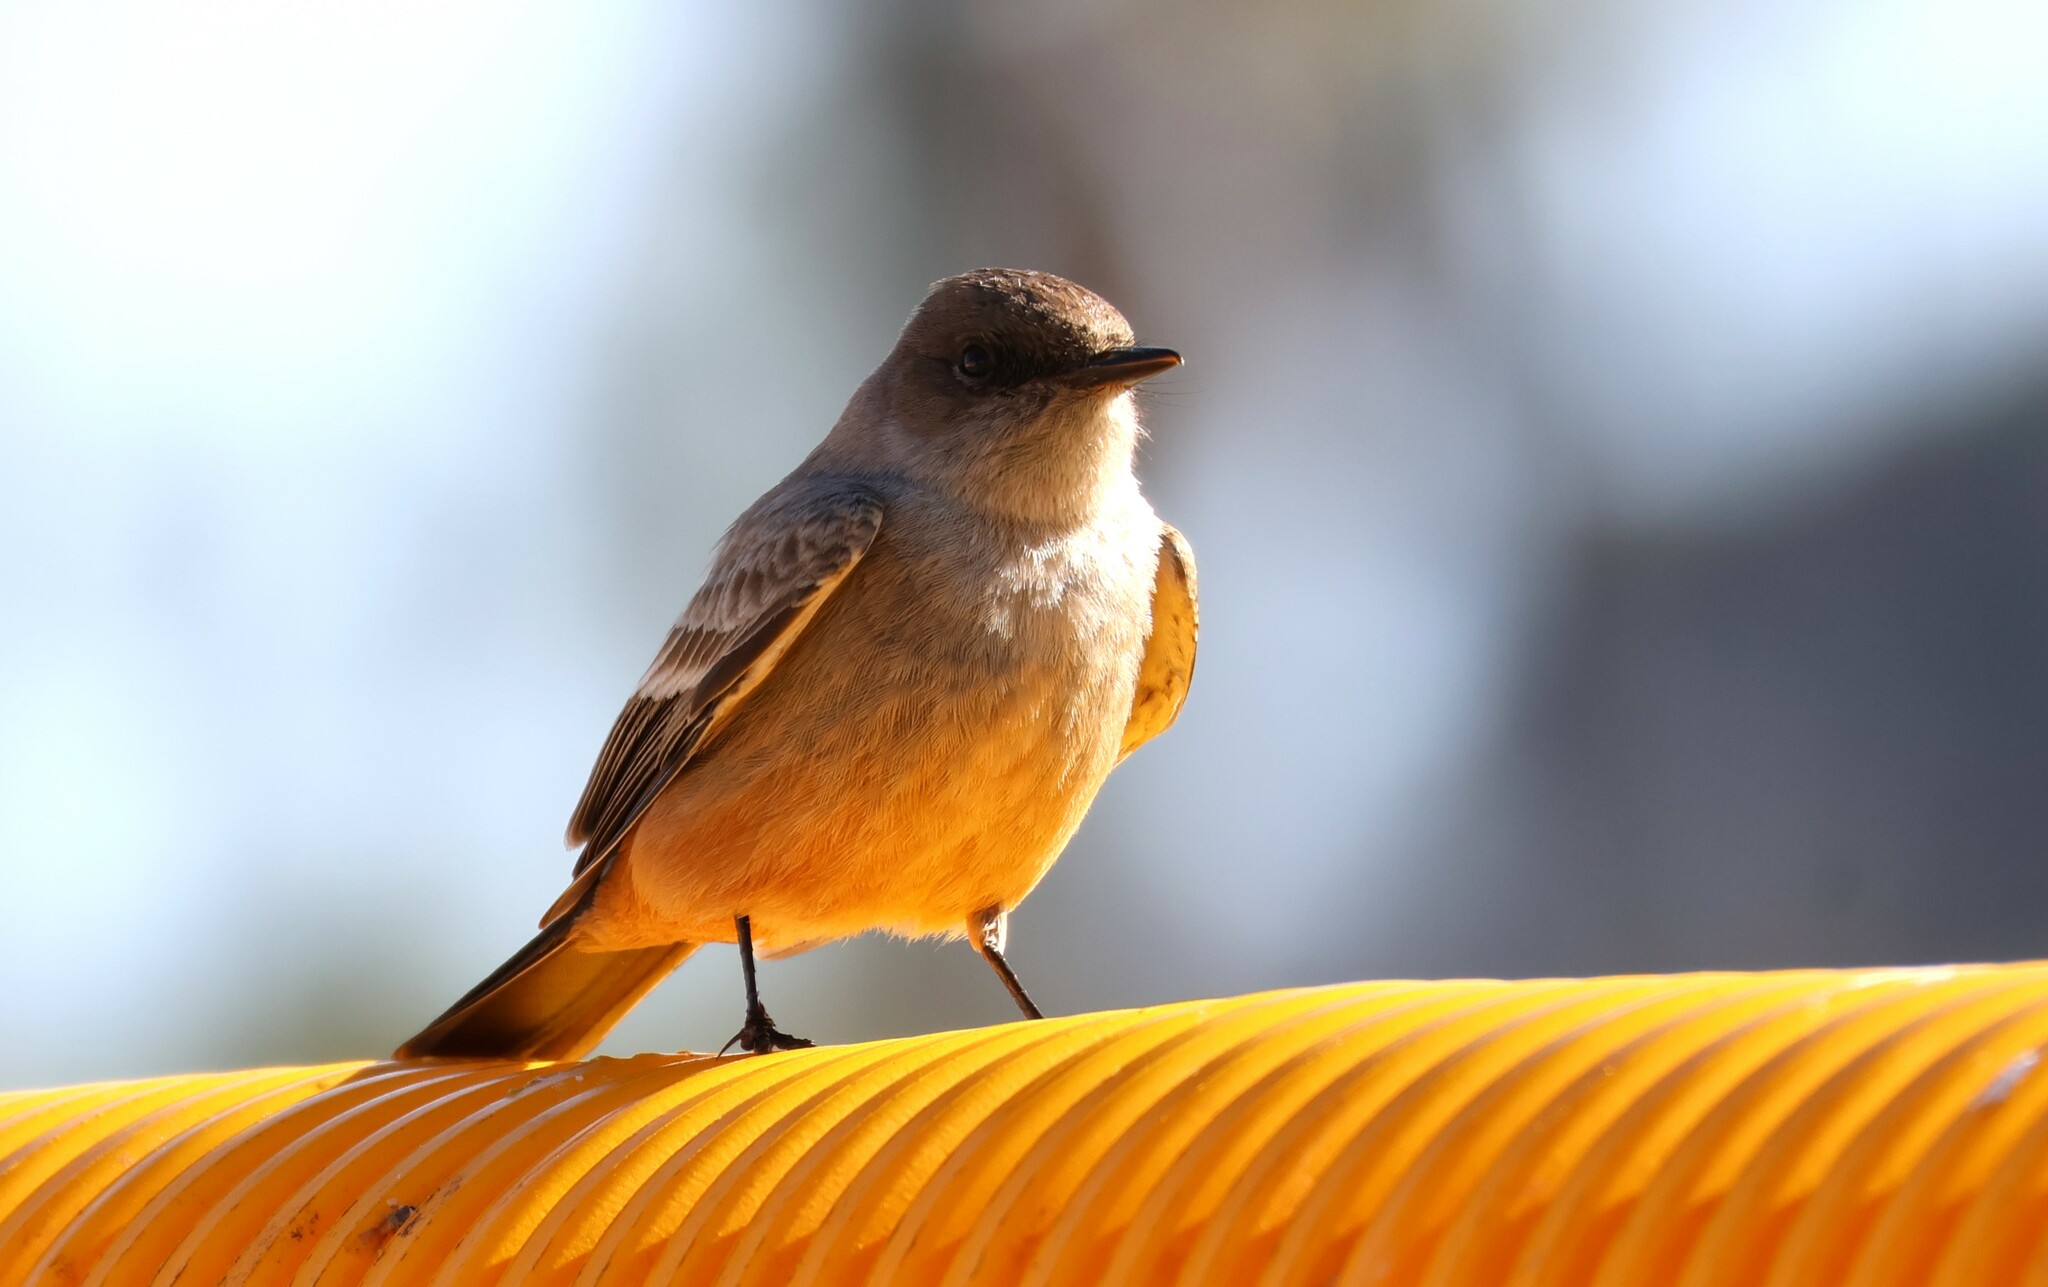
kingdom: Animalia
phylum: Chordata
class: Aves
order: Passeriformes
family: Tyrannidae
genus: Sayornis
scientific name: Sayornis saya
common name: Say's phoebe
